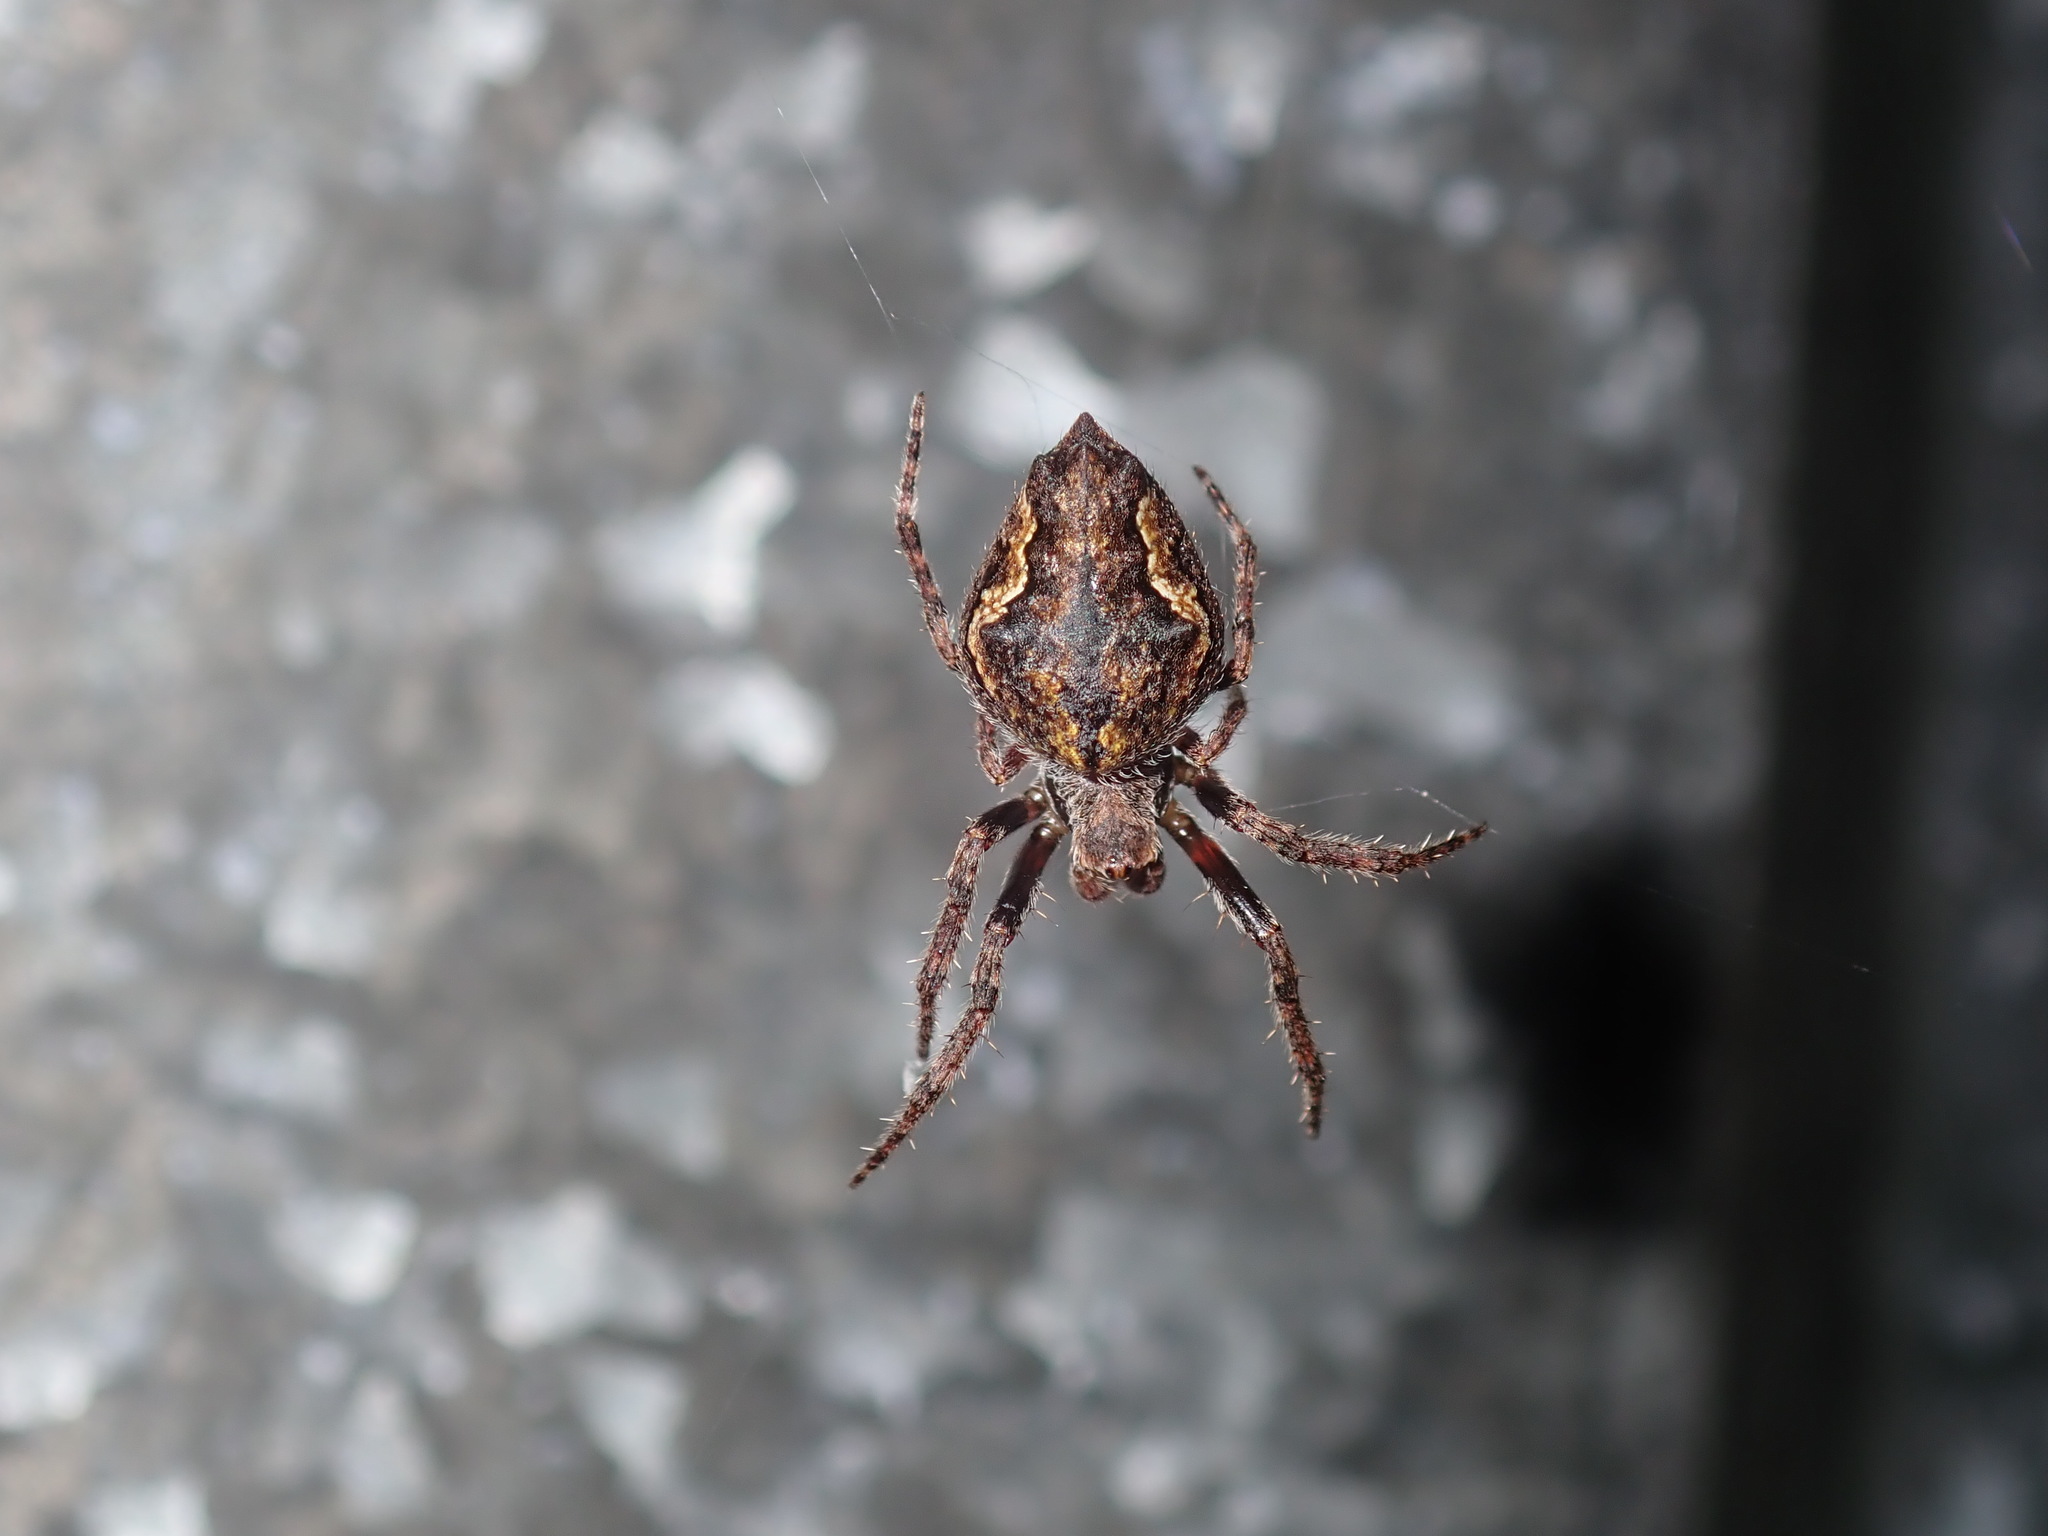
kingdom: Animalia
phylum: Arthropoda
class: Arachnida
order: Araneae
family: Araneidae
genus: Eriophora
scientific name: Eriophora pustulosa
